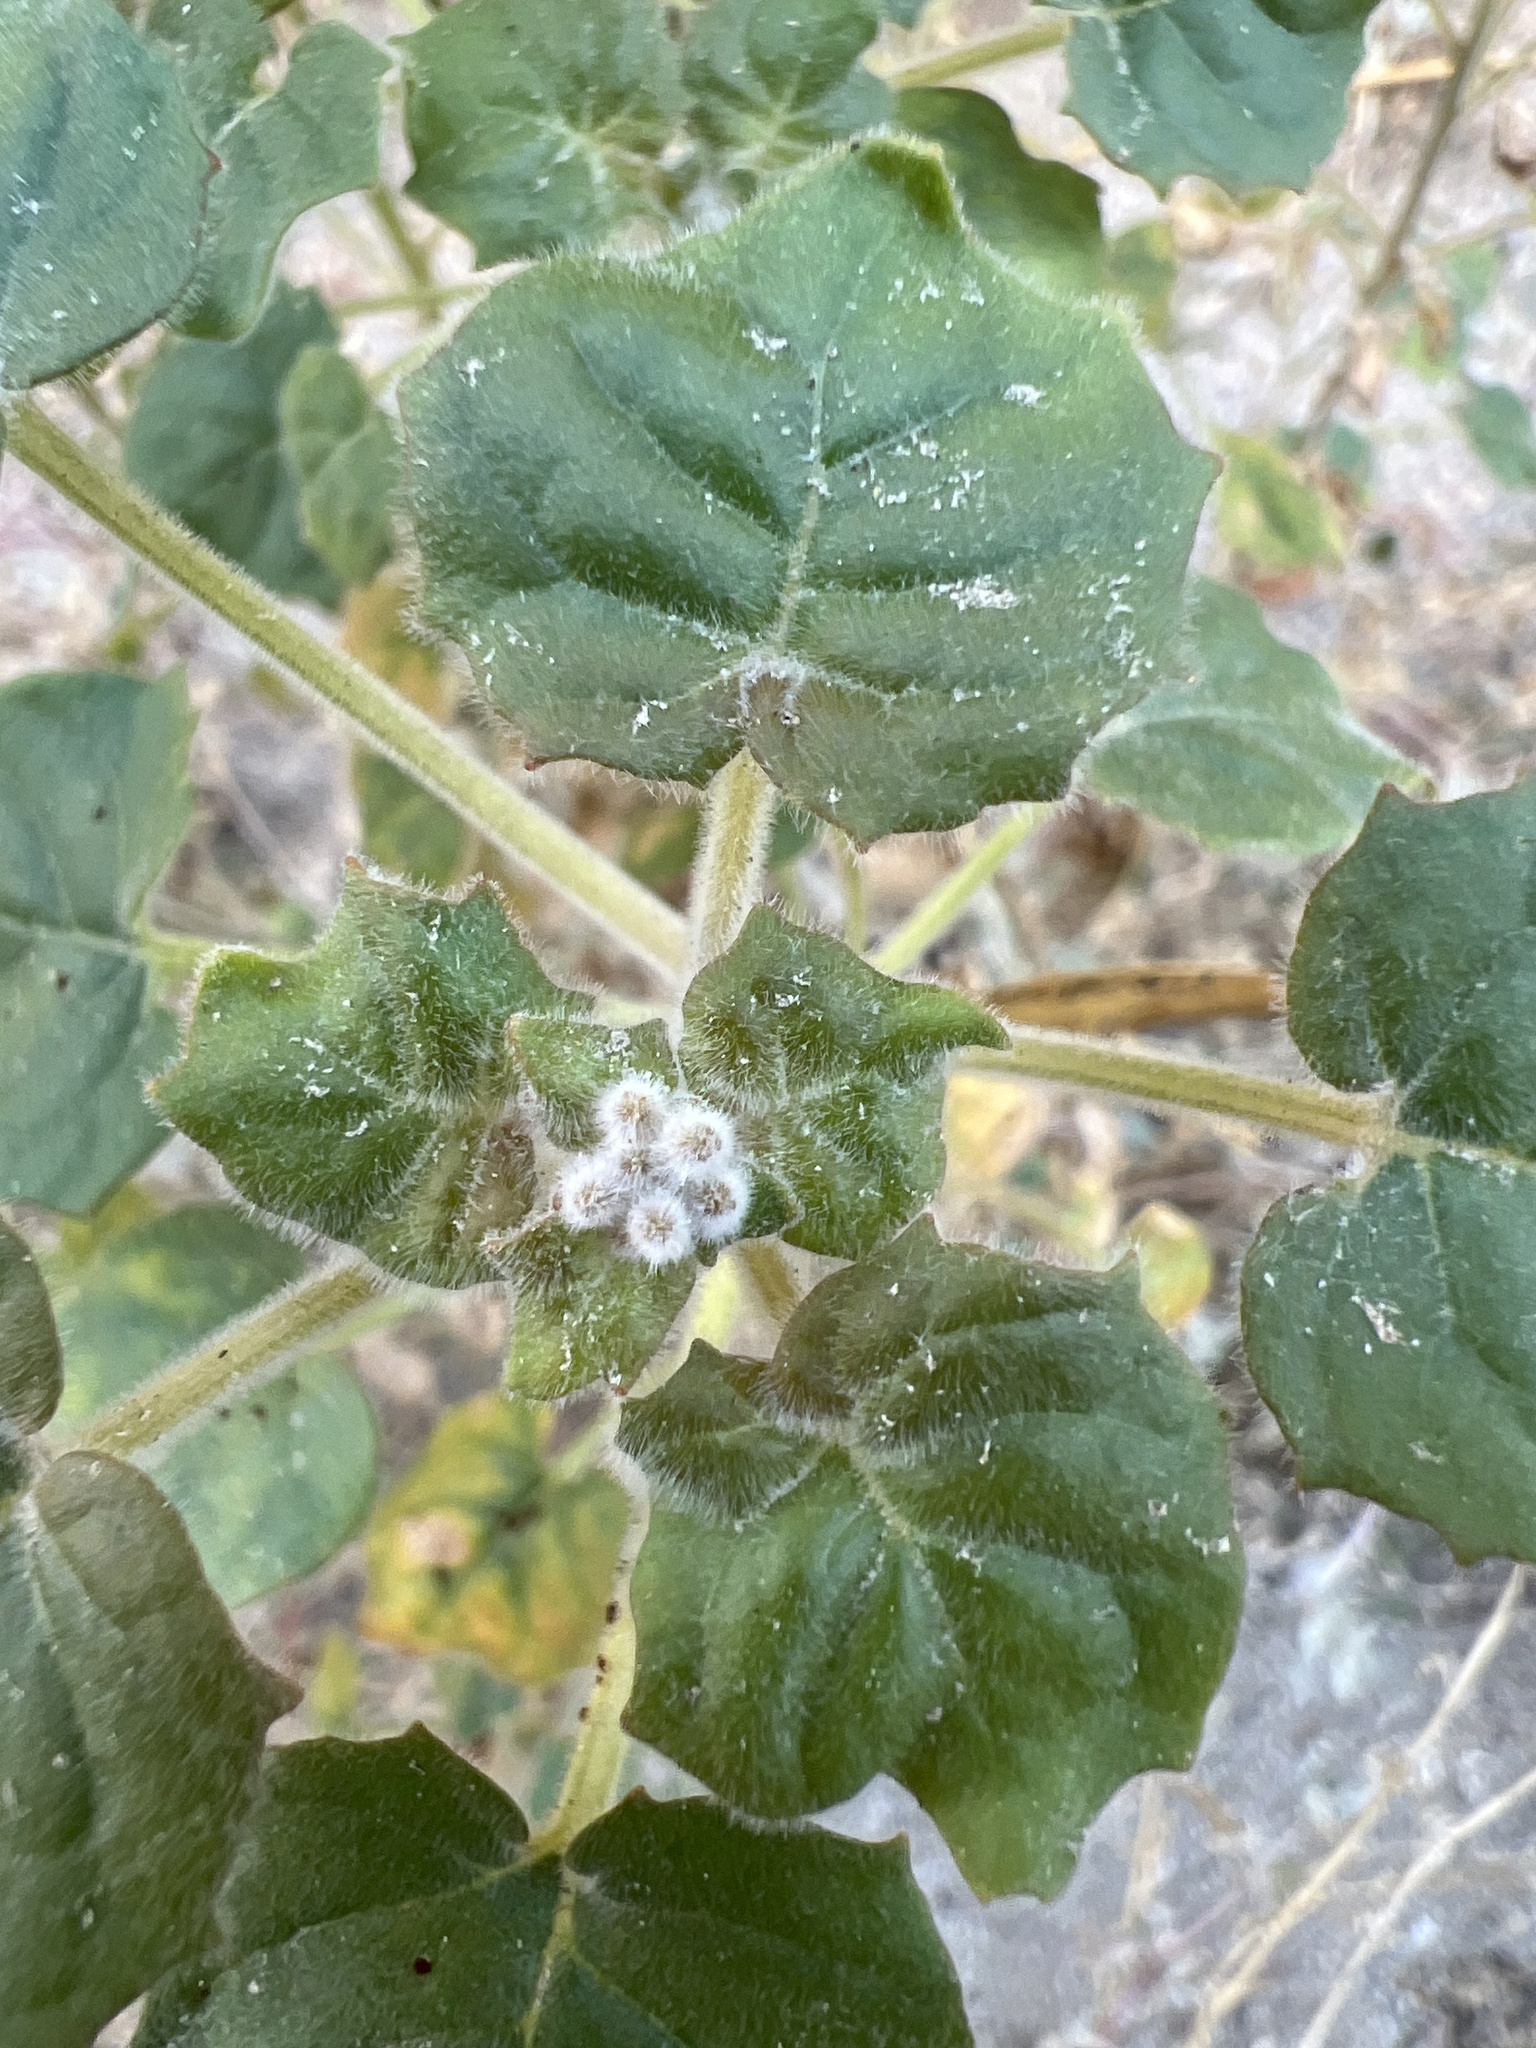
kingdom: Plantae
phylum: Tracheophyta
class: Magnoliopsida
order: Myrtales
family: Onagraceae
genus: Chylismia
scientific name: Chylismia cardiophylla
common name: Heartleaf suncup
